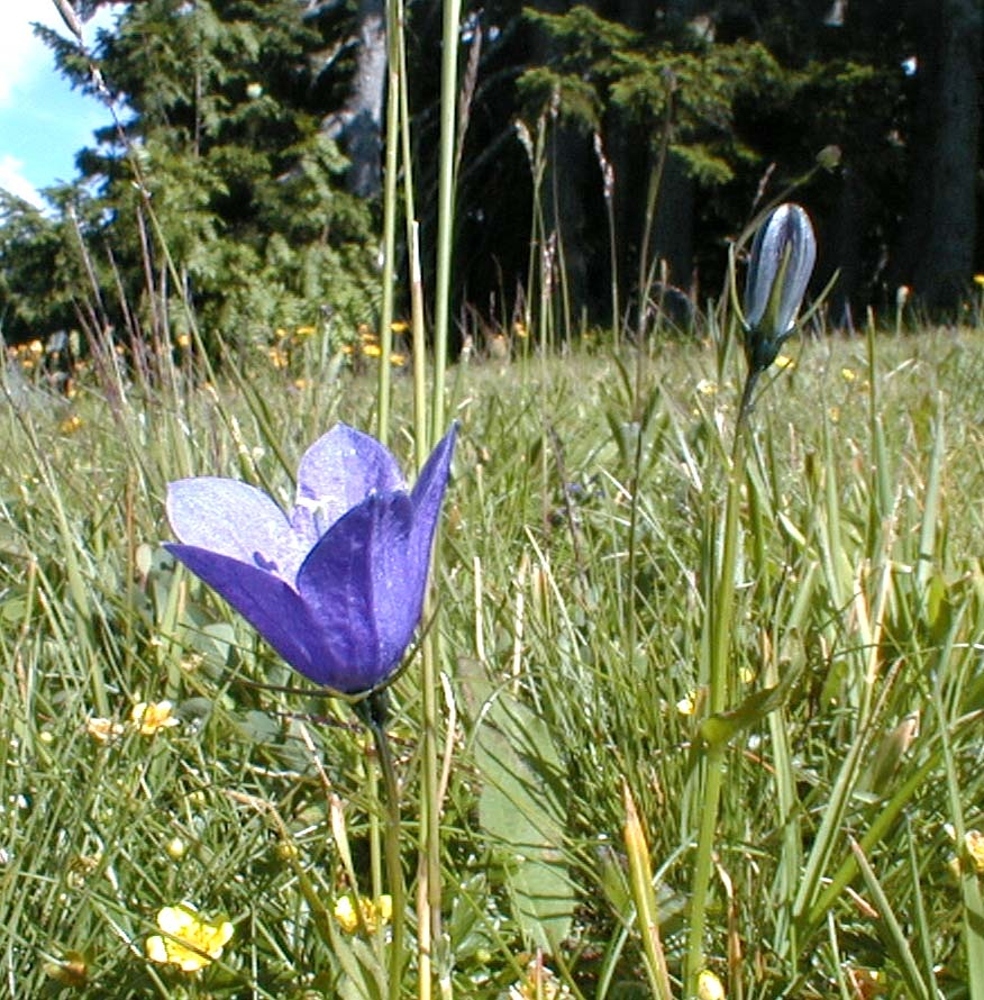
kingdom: Plantae
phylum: Tracheophyta
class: Magnoliopsida
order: Asterales
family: Campanulaceae
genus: Campanula
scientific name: Campanula rhomboidalis
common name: Broad-leaved harebell
